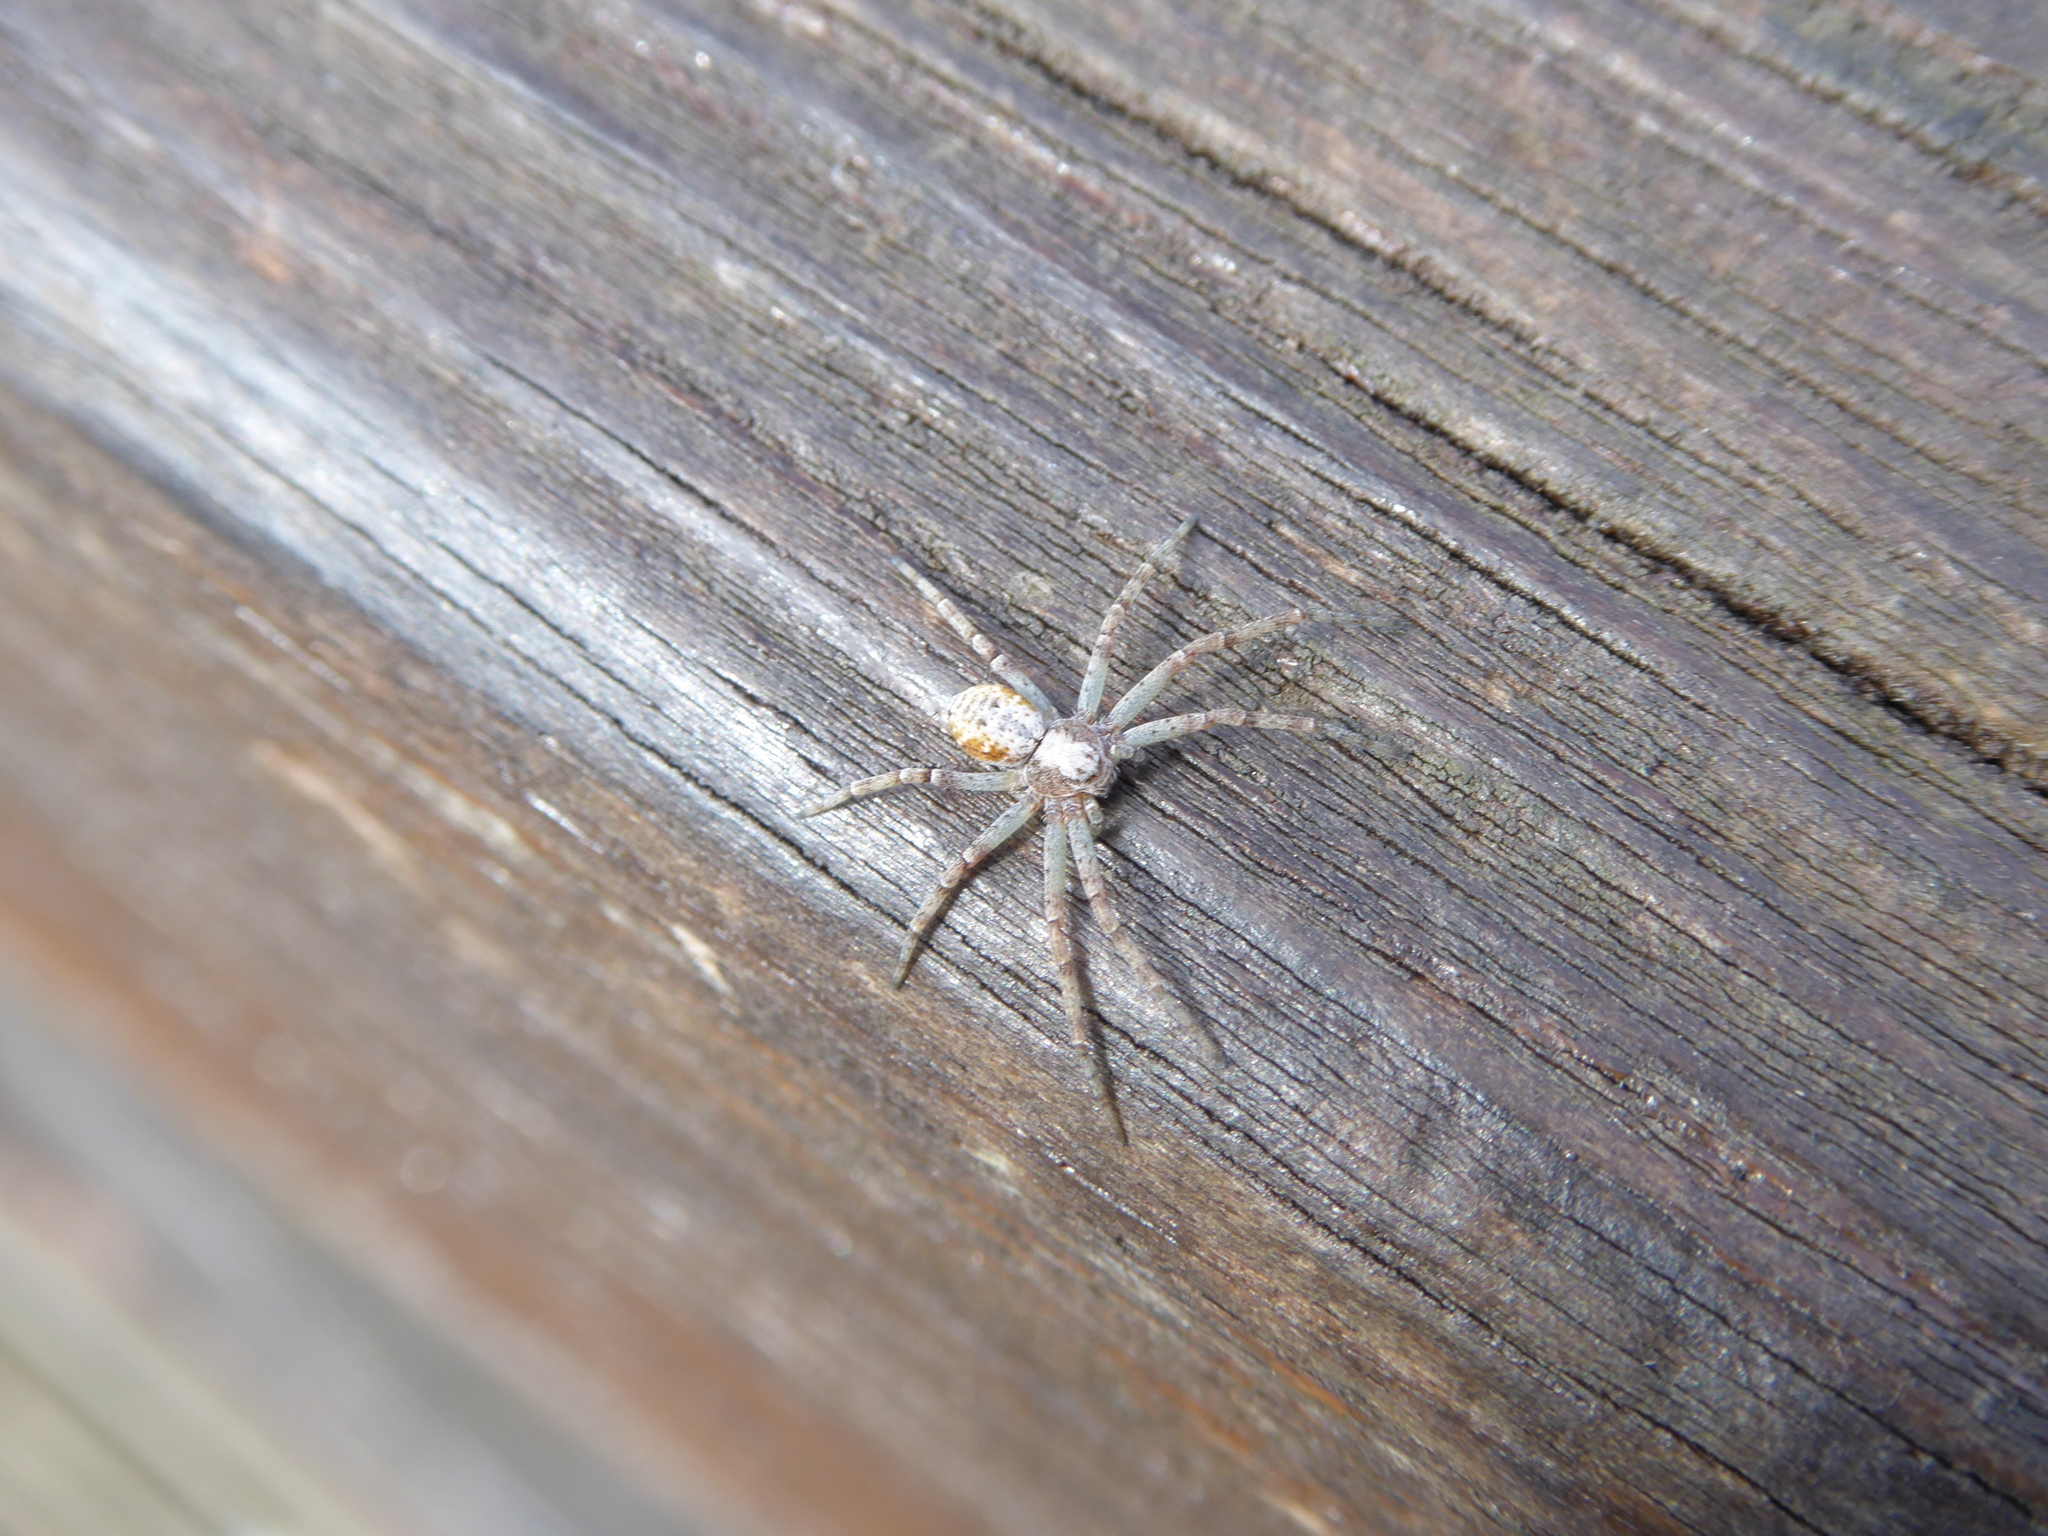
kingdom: Animalia
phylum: Arthropoda
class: Arachnida
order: Araneae
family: Philodromidae
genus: Philodromus
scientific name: Philodromus
